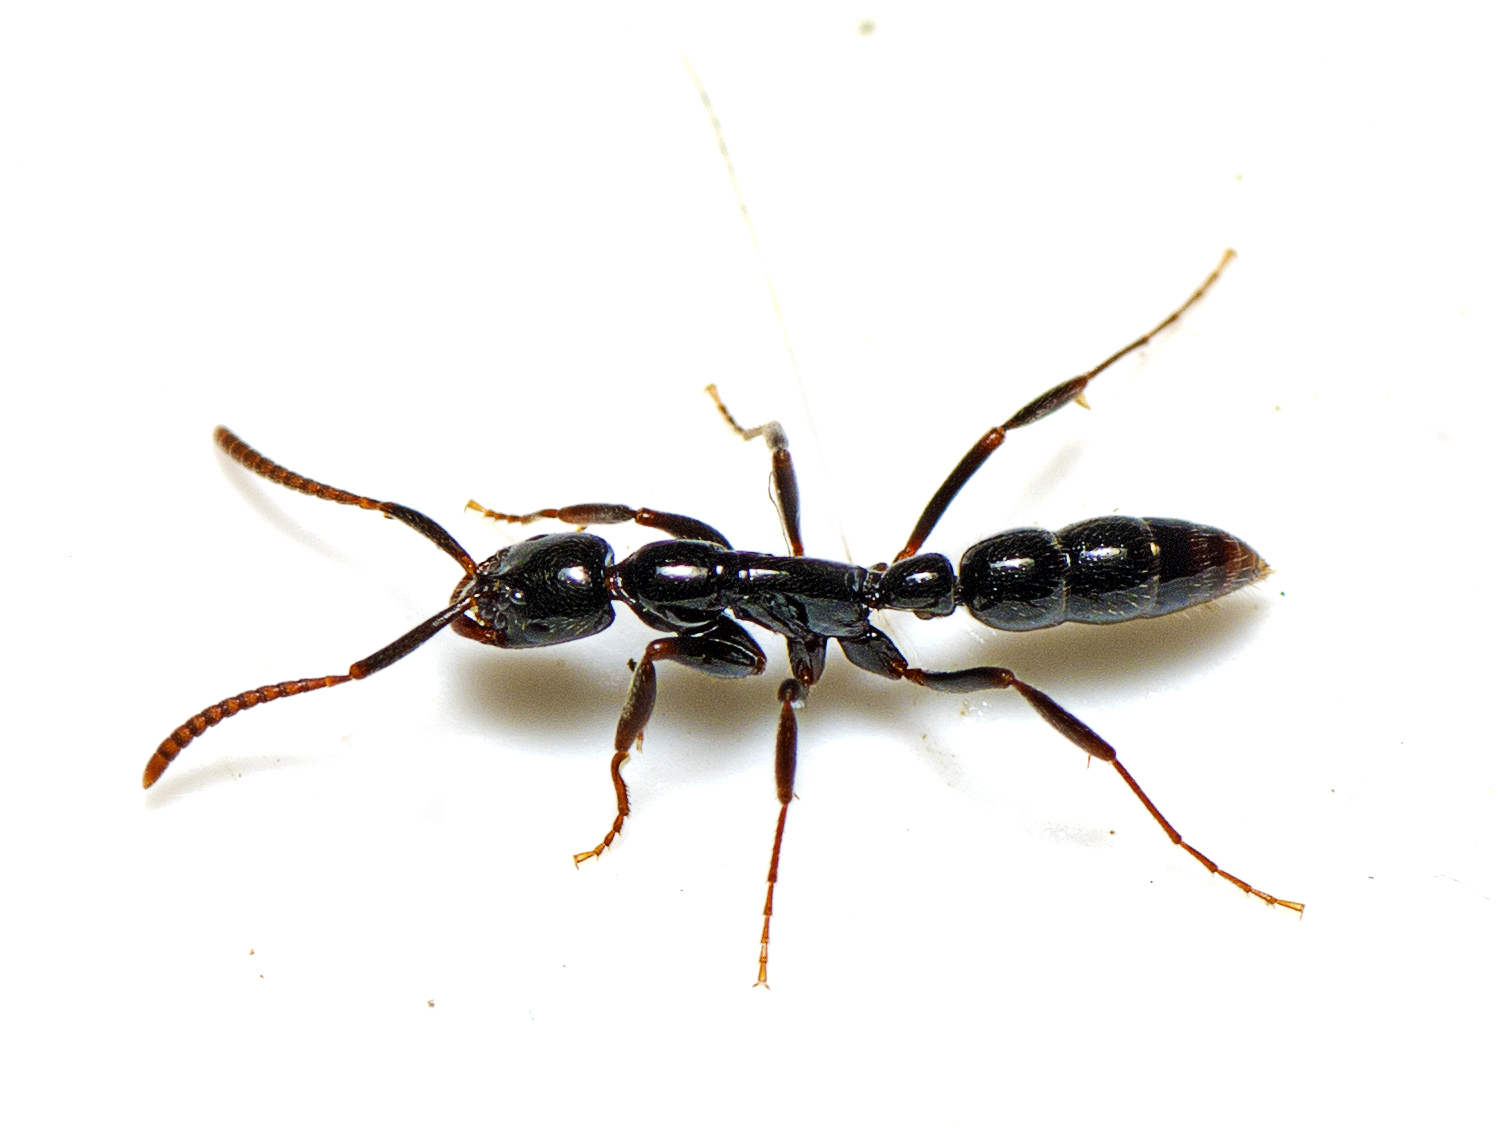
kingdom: Animalia
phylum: Arthropoda
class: Insecta
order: Hymenoptera
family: Formicidae
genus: Leptogenys
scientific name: Leptogenys anitae
